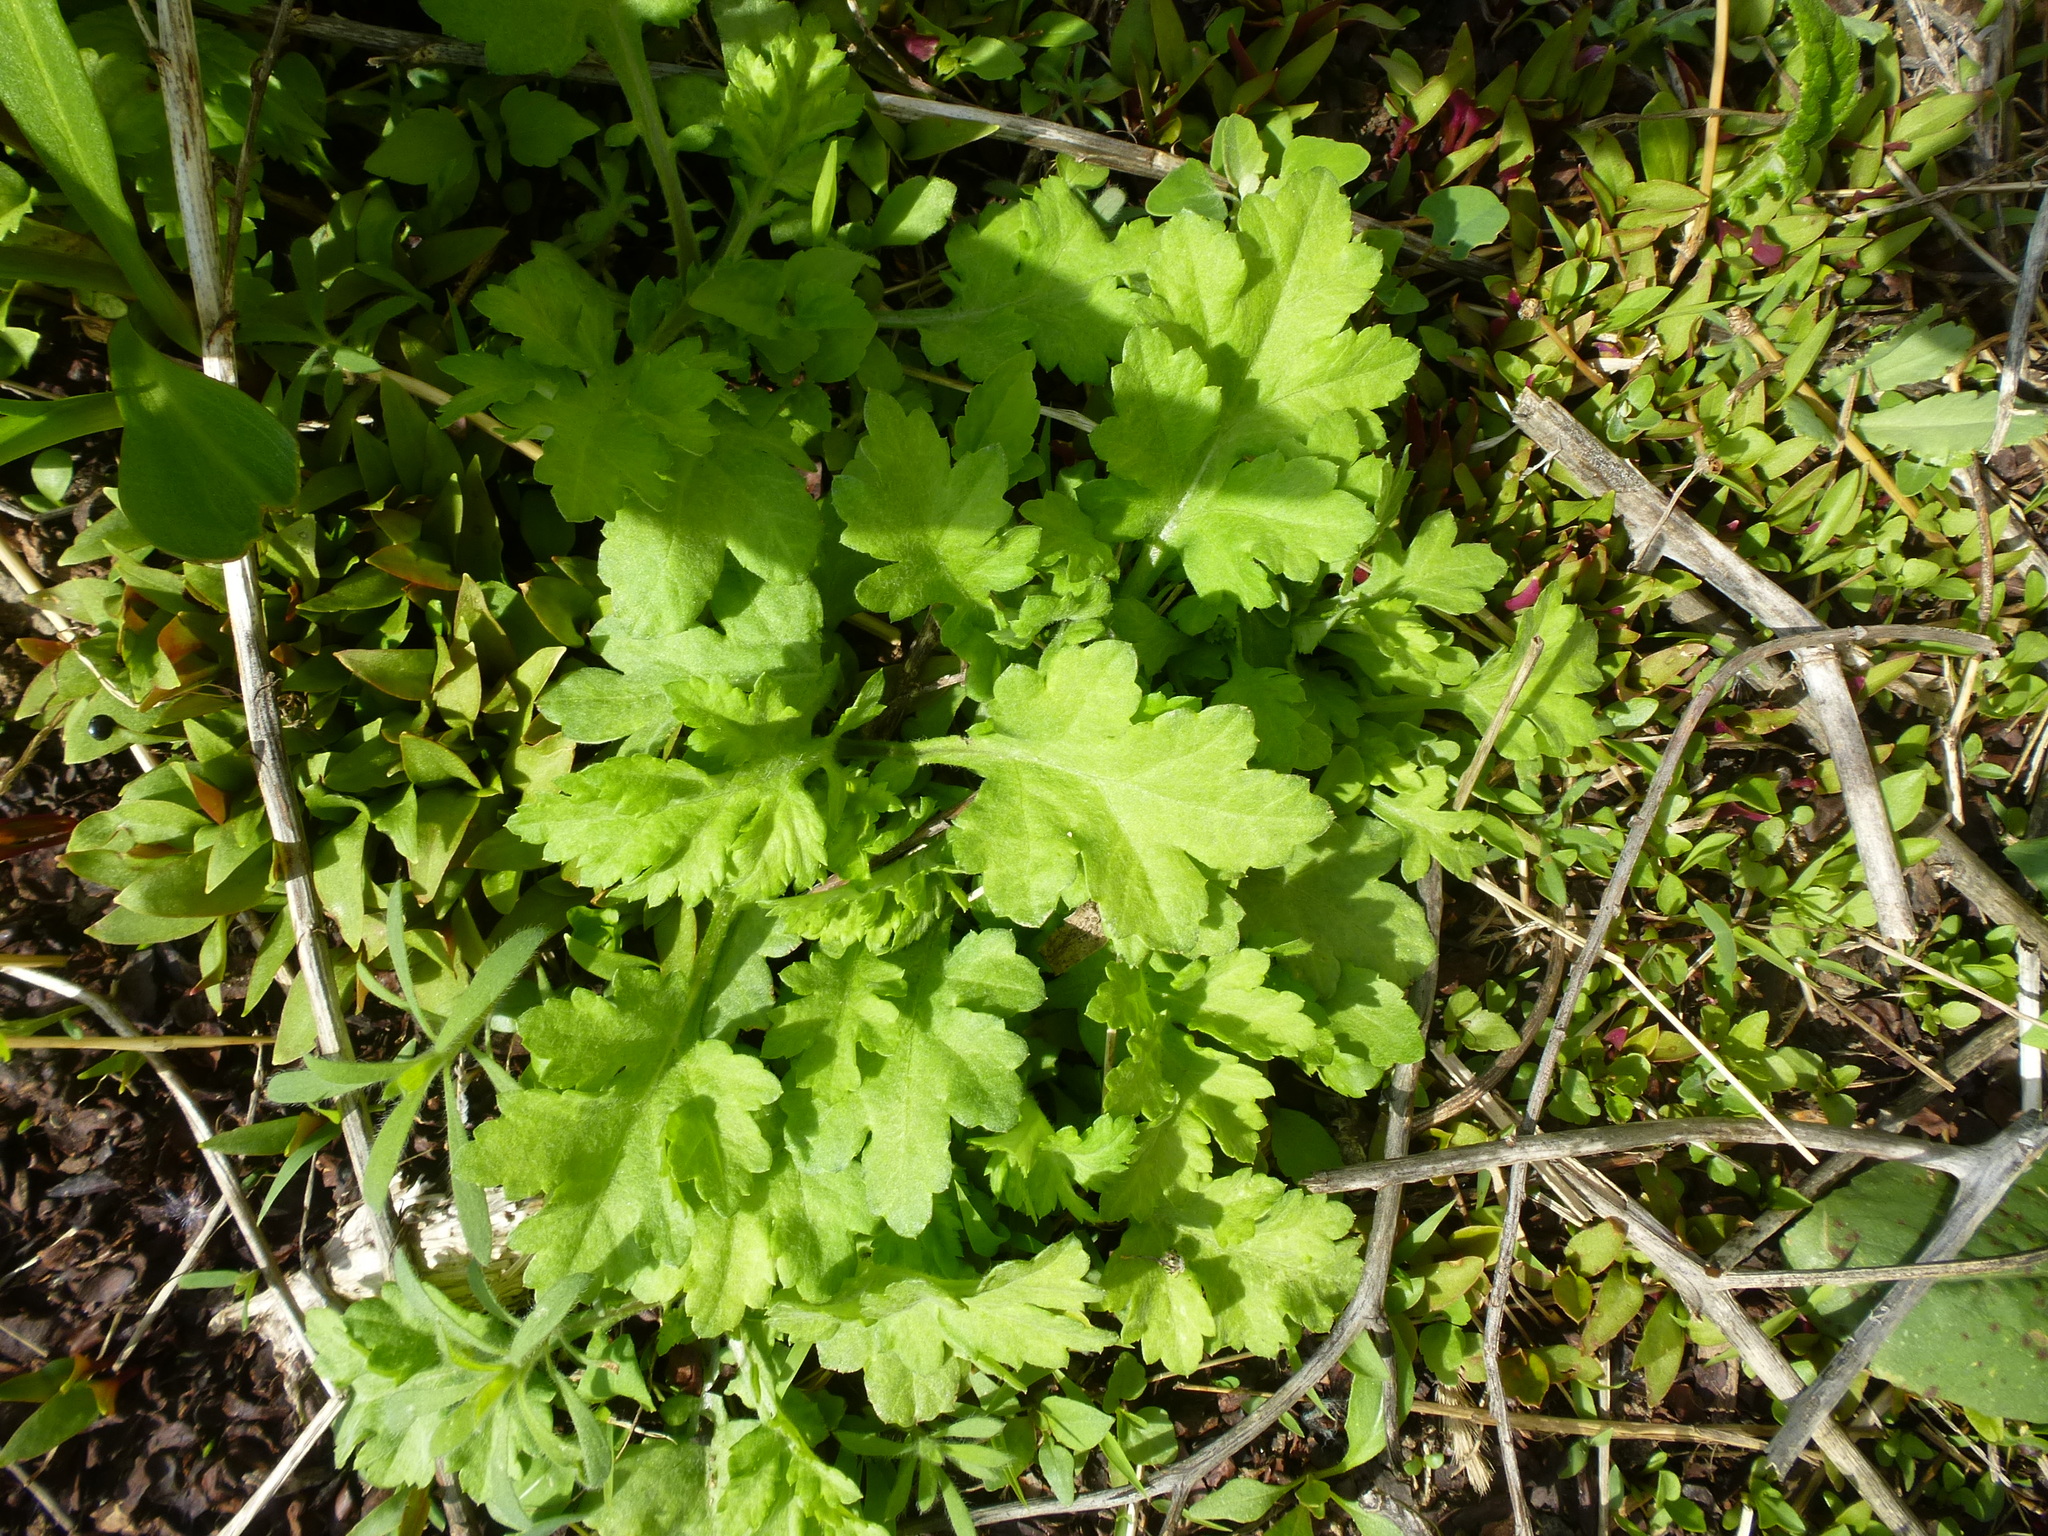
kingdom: Plantae
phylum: Tracheophyta
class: Magnoliopsida
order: Asterales
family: Asteraceae
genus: Artemisia
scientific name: Artemisia vulgaris
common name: Mugwort
